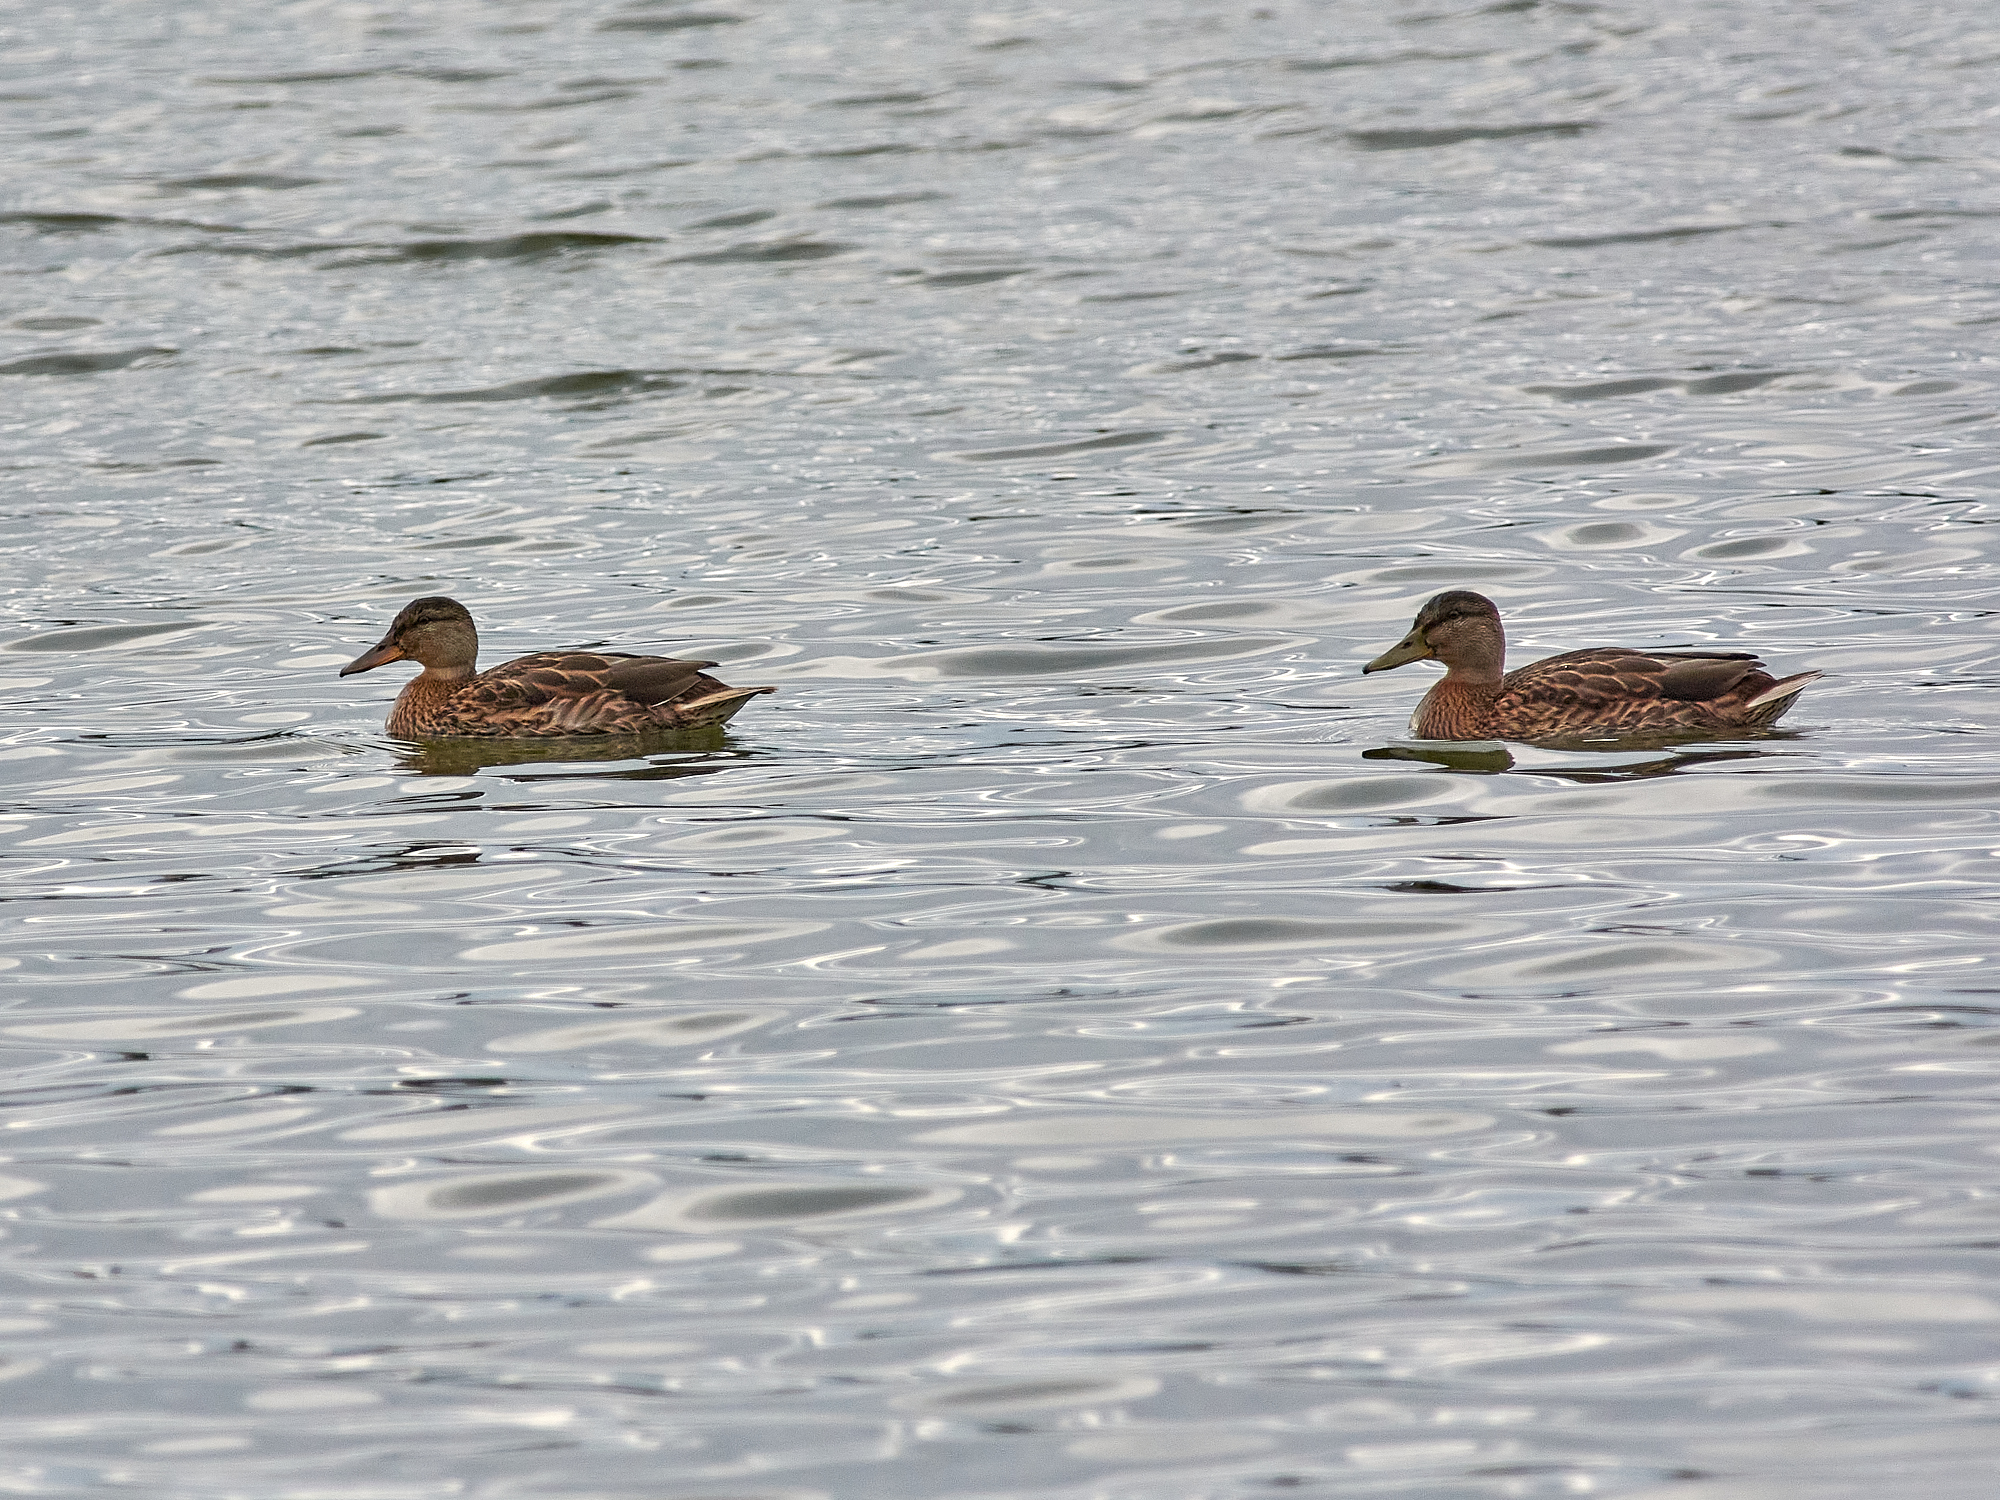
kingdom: Animalia
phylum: Chordata
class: Aves
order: Anseriformes
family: Anatidae
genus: Anas
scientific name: Anas platyrhynchos
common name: Mallard
